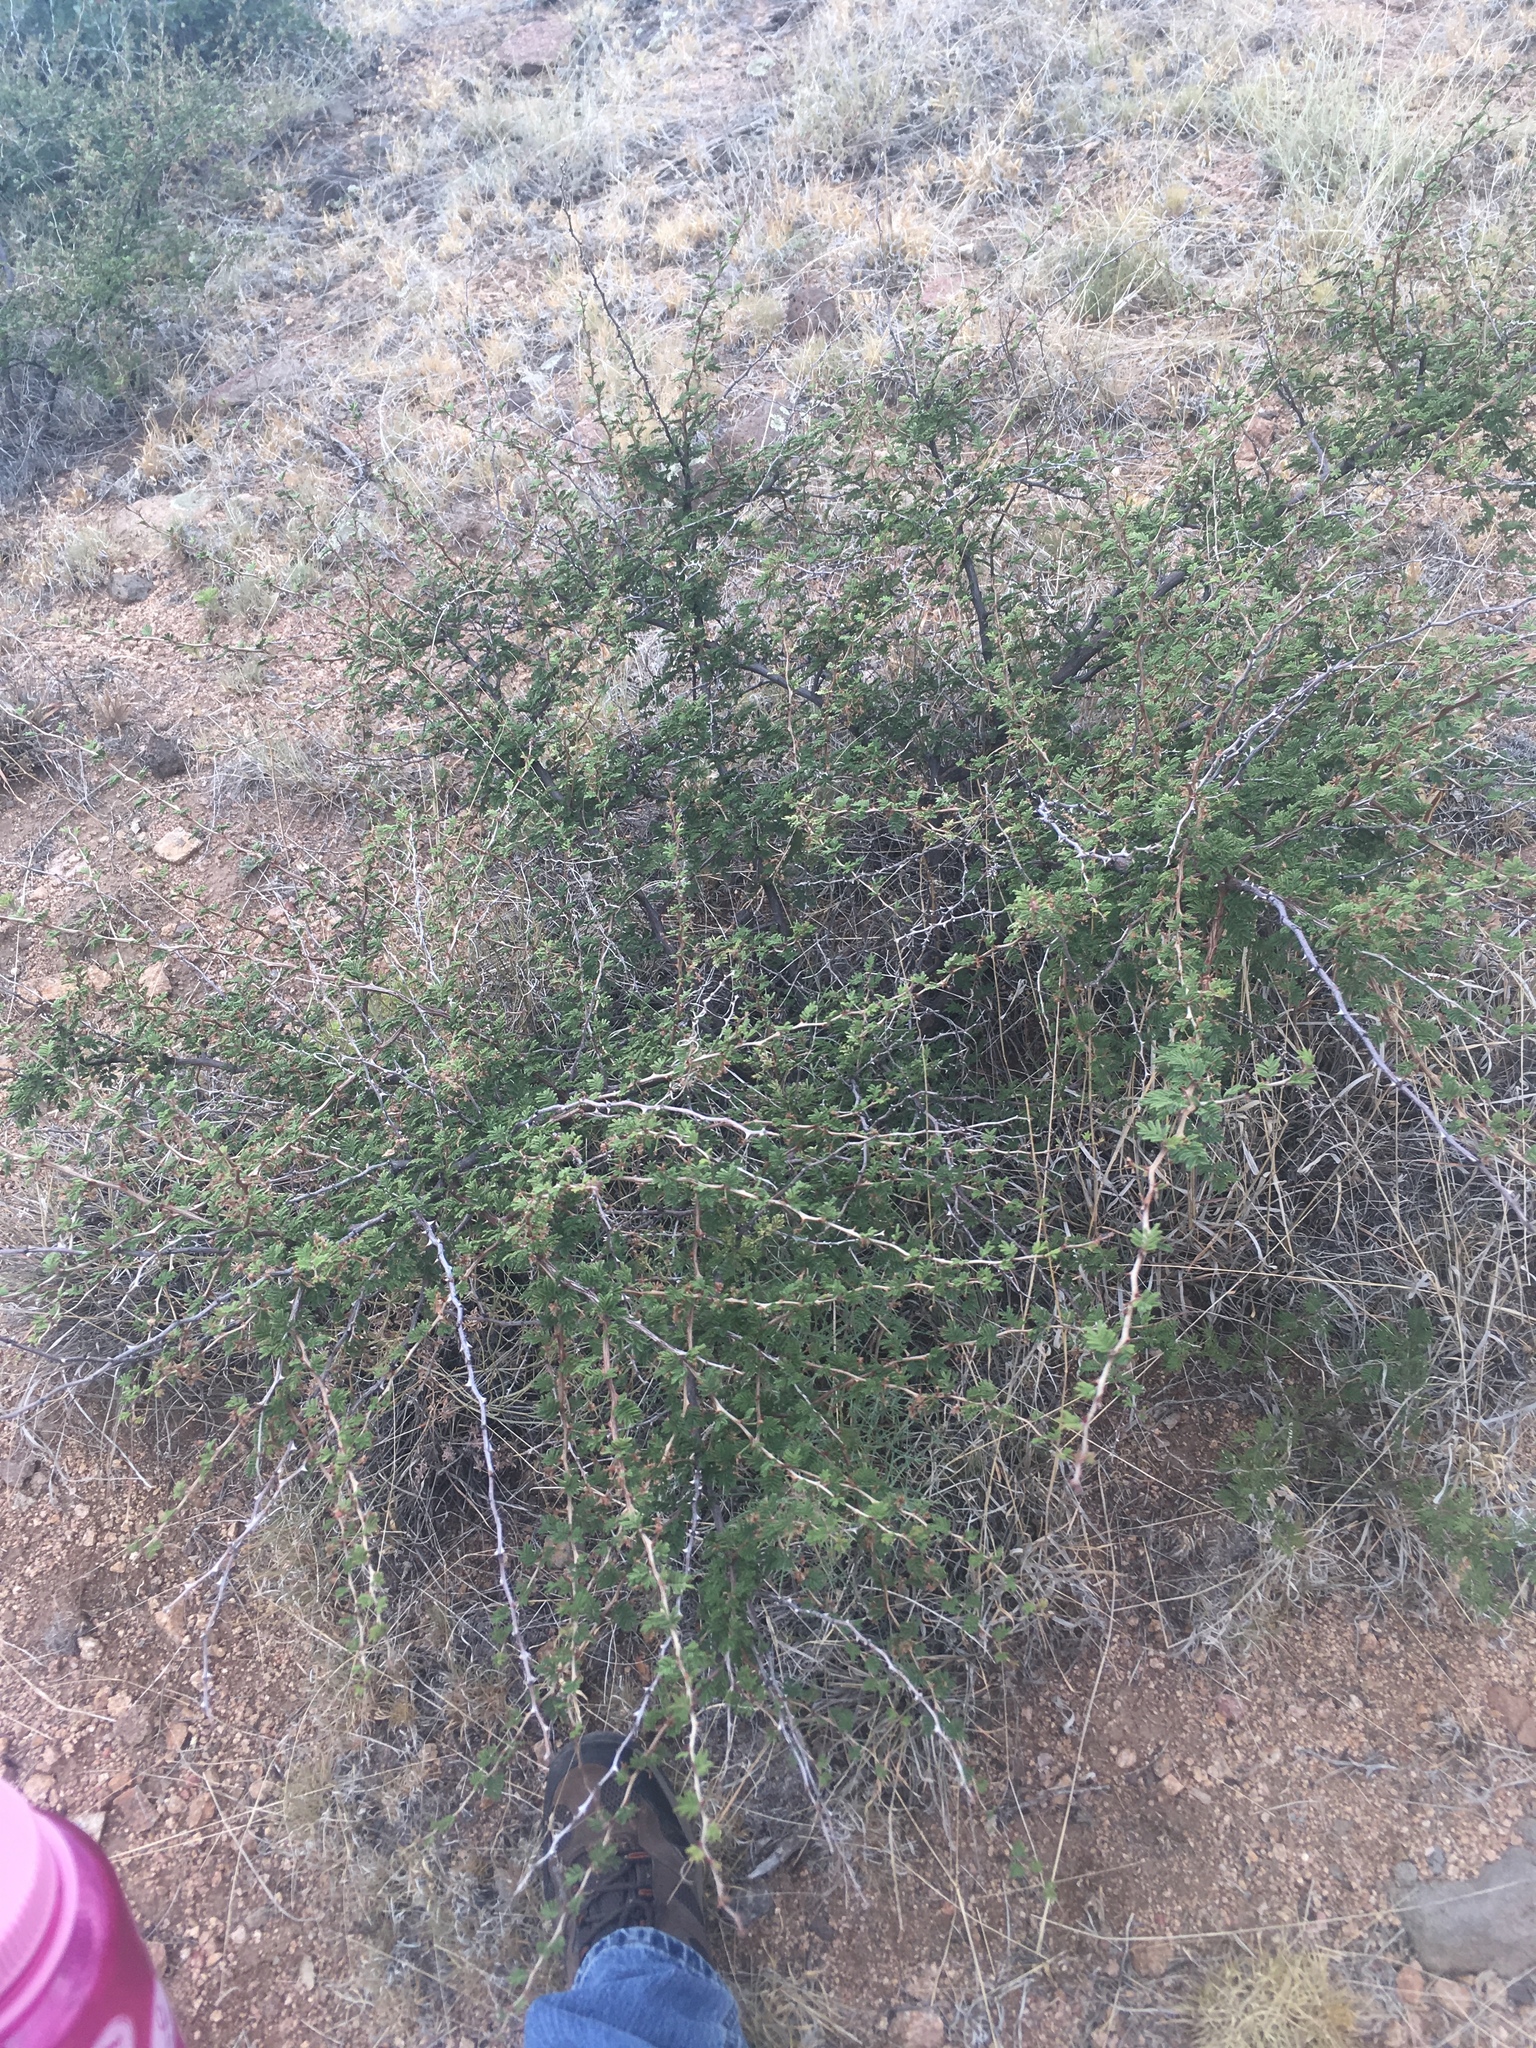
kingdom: Plantae
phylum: Tracheophyta
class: Magnoliopsida
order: Fabales
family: Fabaceae
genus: Mimosa
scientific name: Mimosa aculeaticarpa
